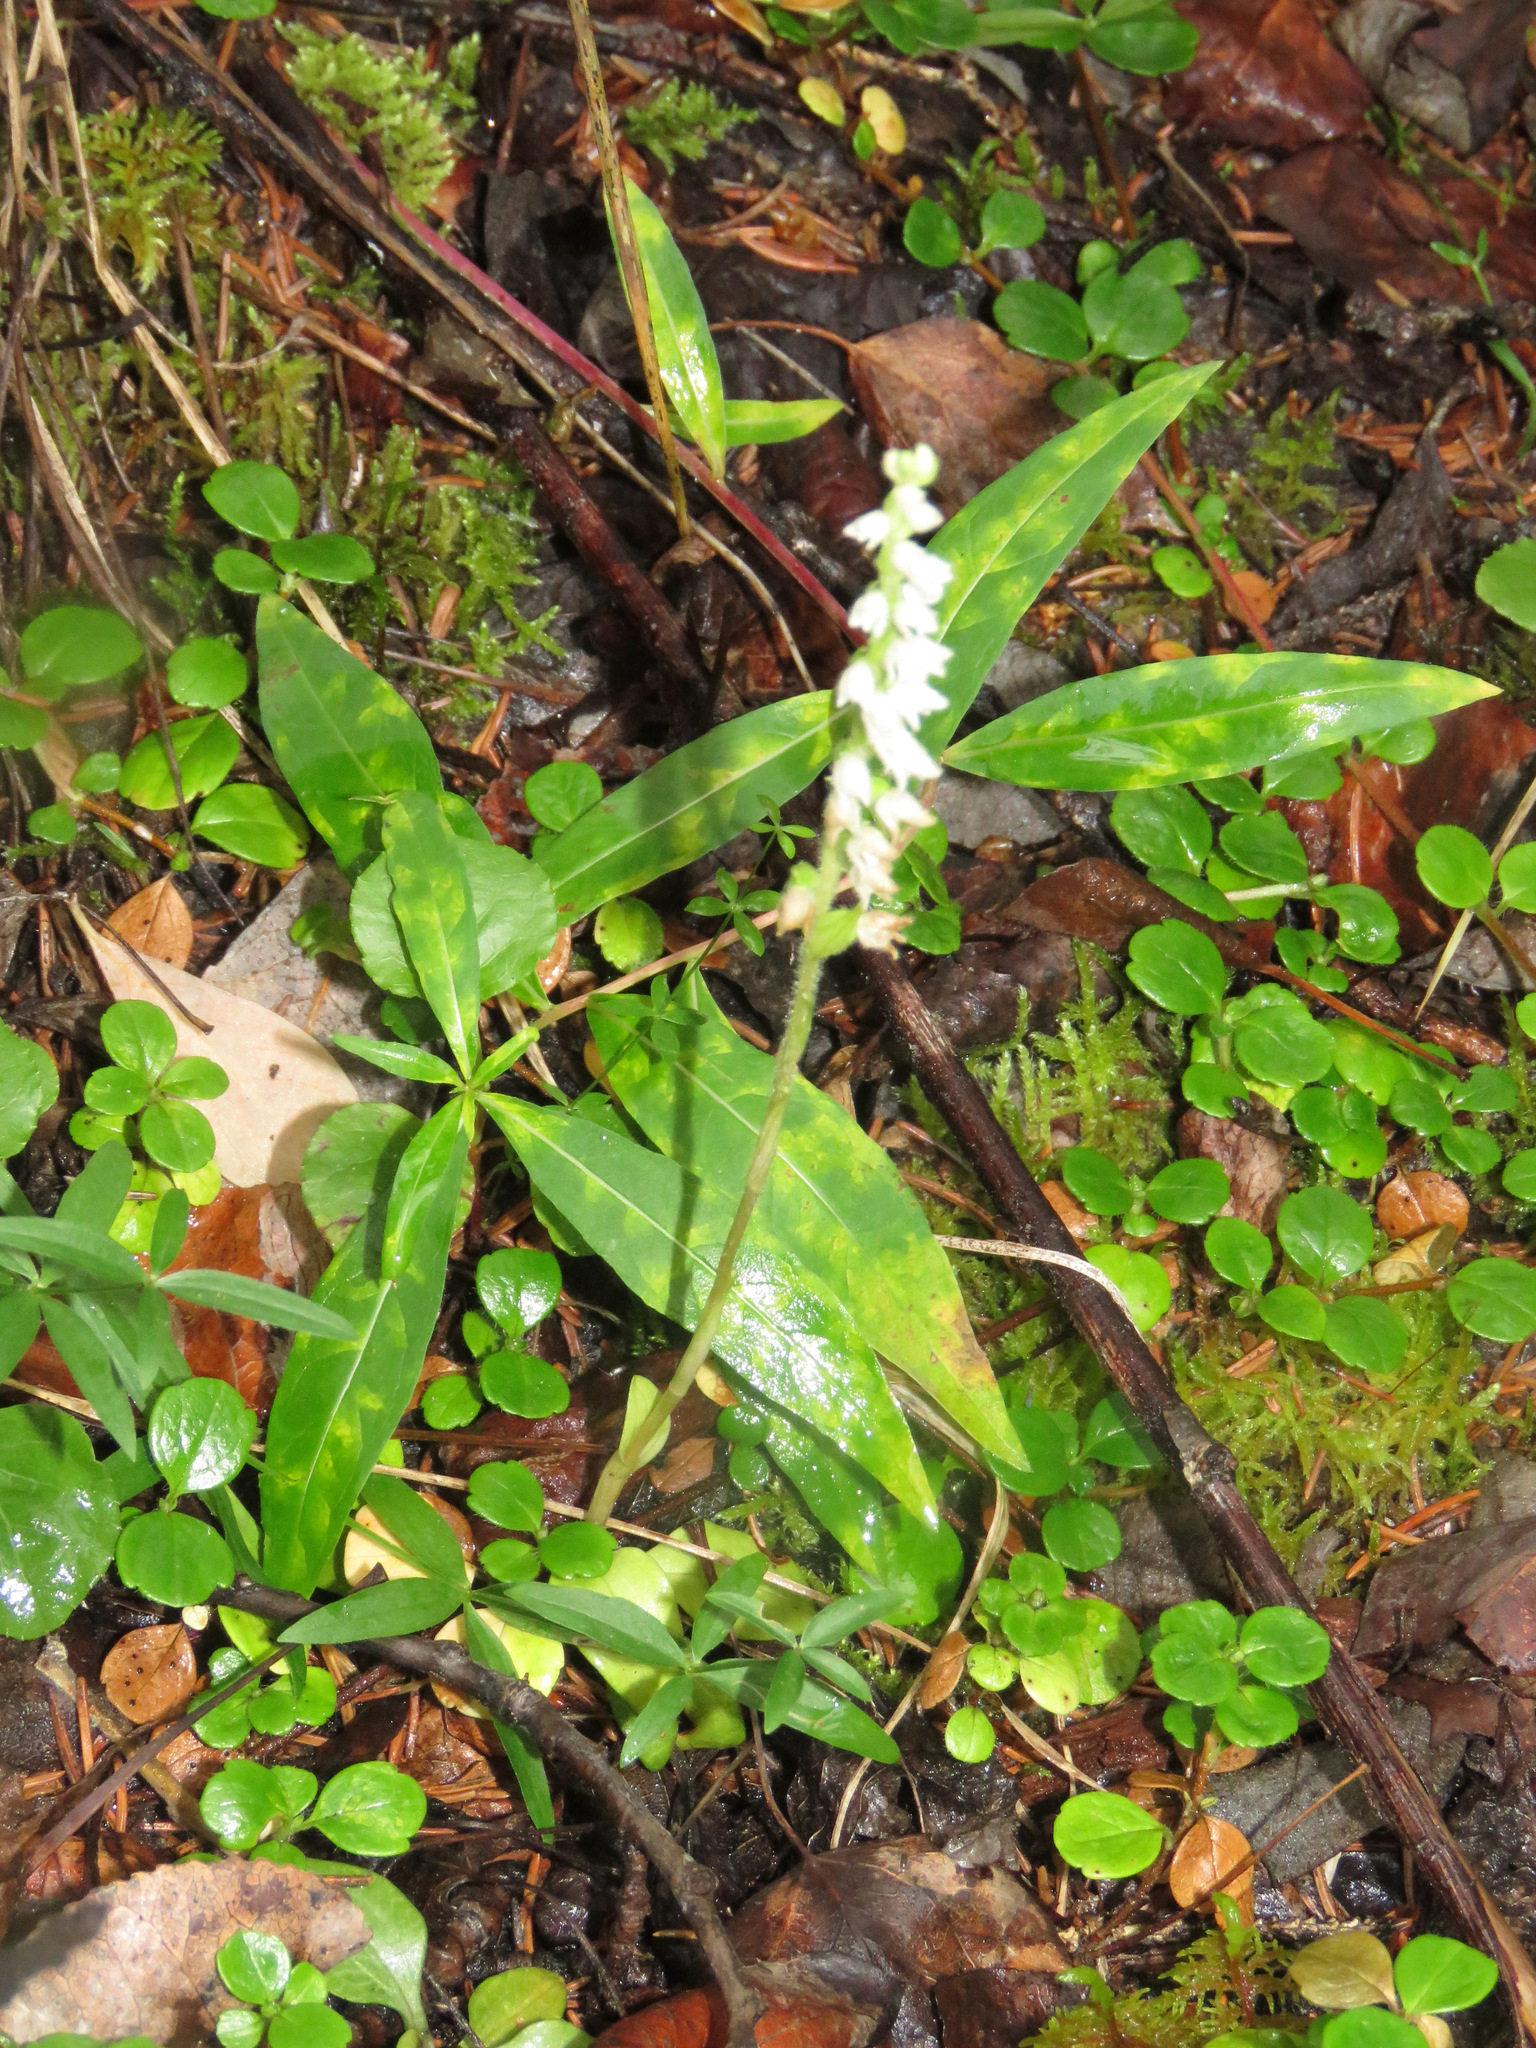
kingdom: Plantae
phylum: Tracheophyta
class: Liliopsida
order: Asparagales
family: Orchidaceae
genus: Goodyera
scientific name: Goodyera repens
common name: Creeping lady's-tresses
